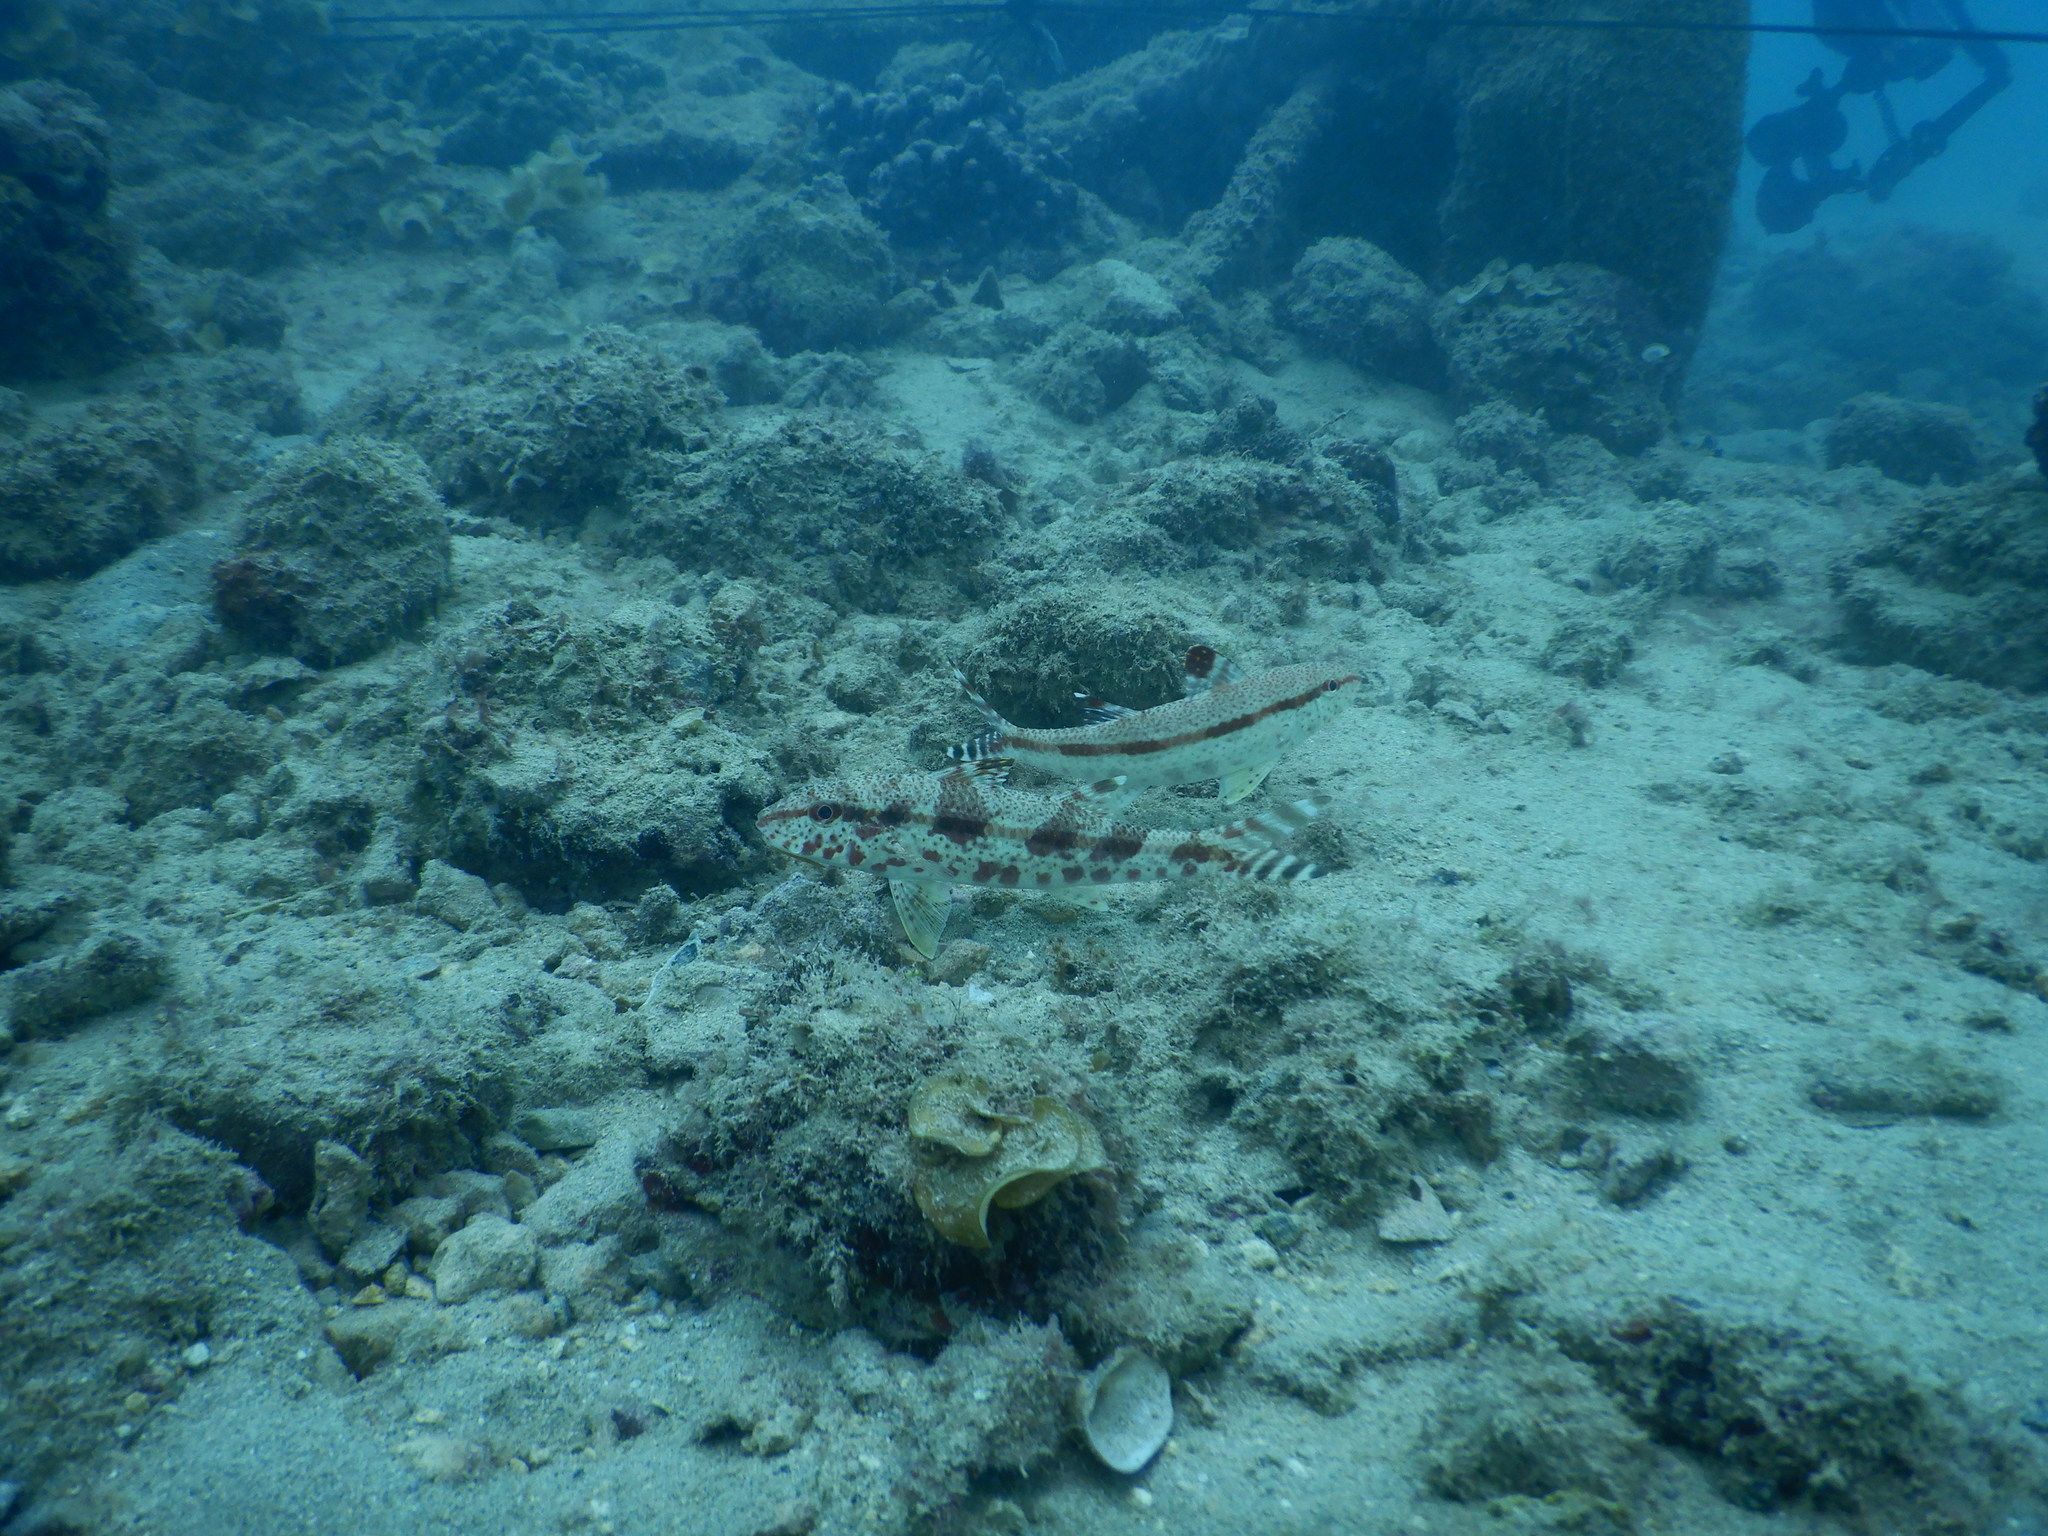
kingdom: Animalia
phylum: Chordata
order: Perciformes
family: Mullidae
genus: Upeneus
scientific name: Upeneus tragula
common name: Freckled goatfish
